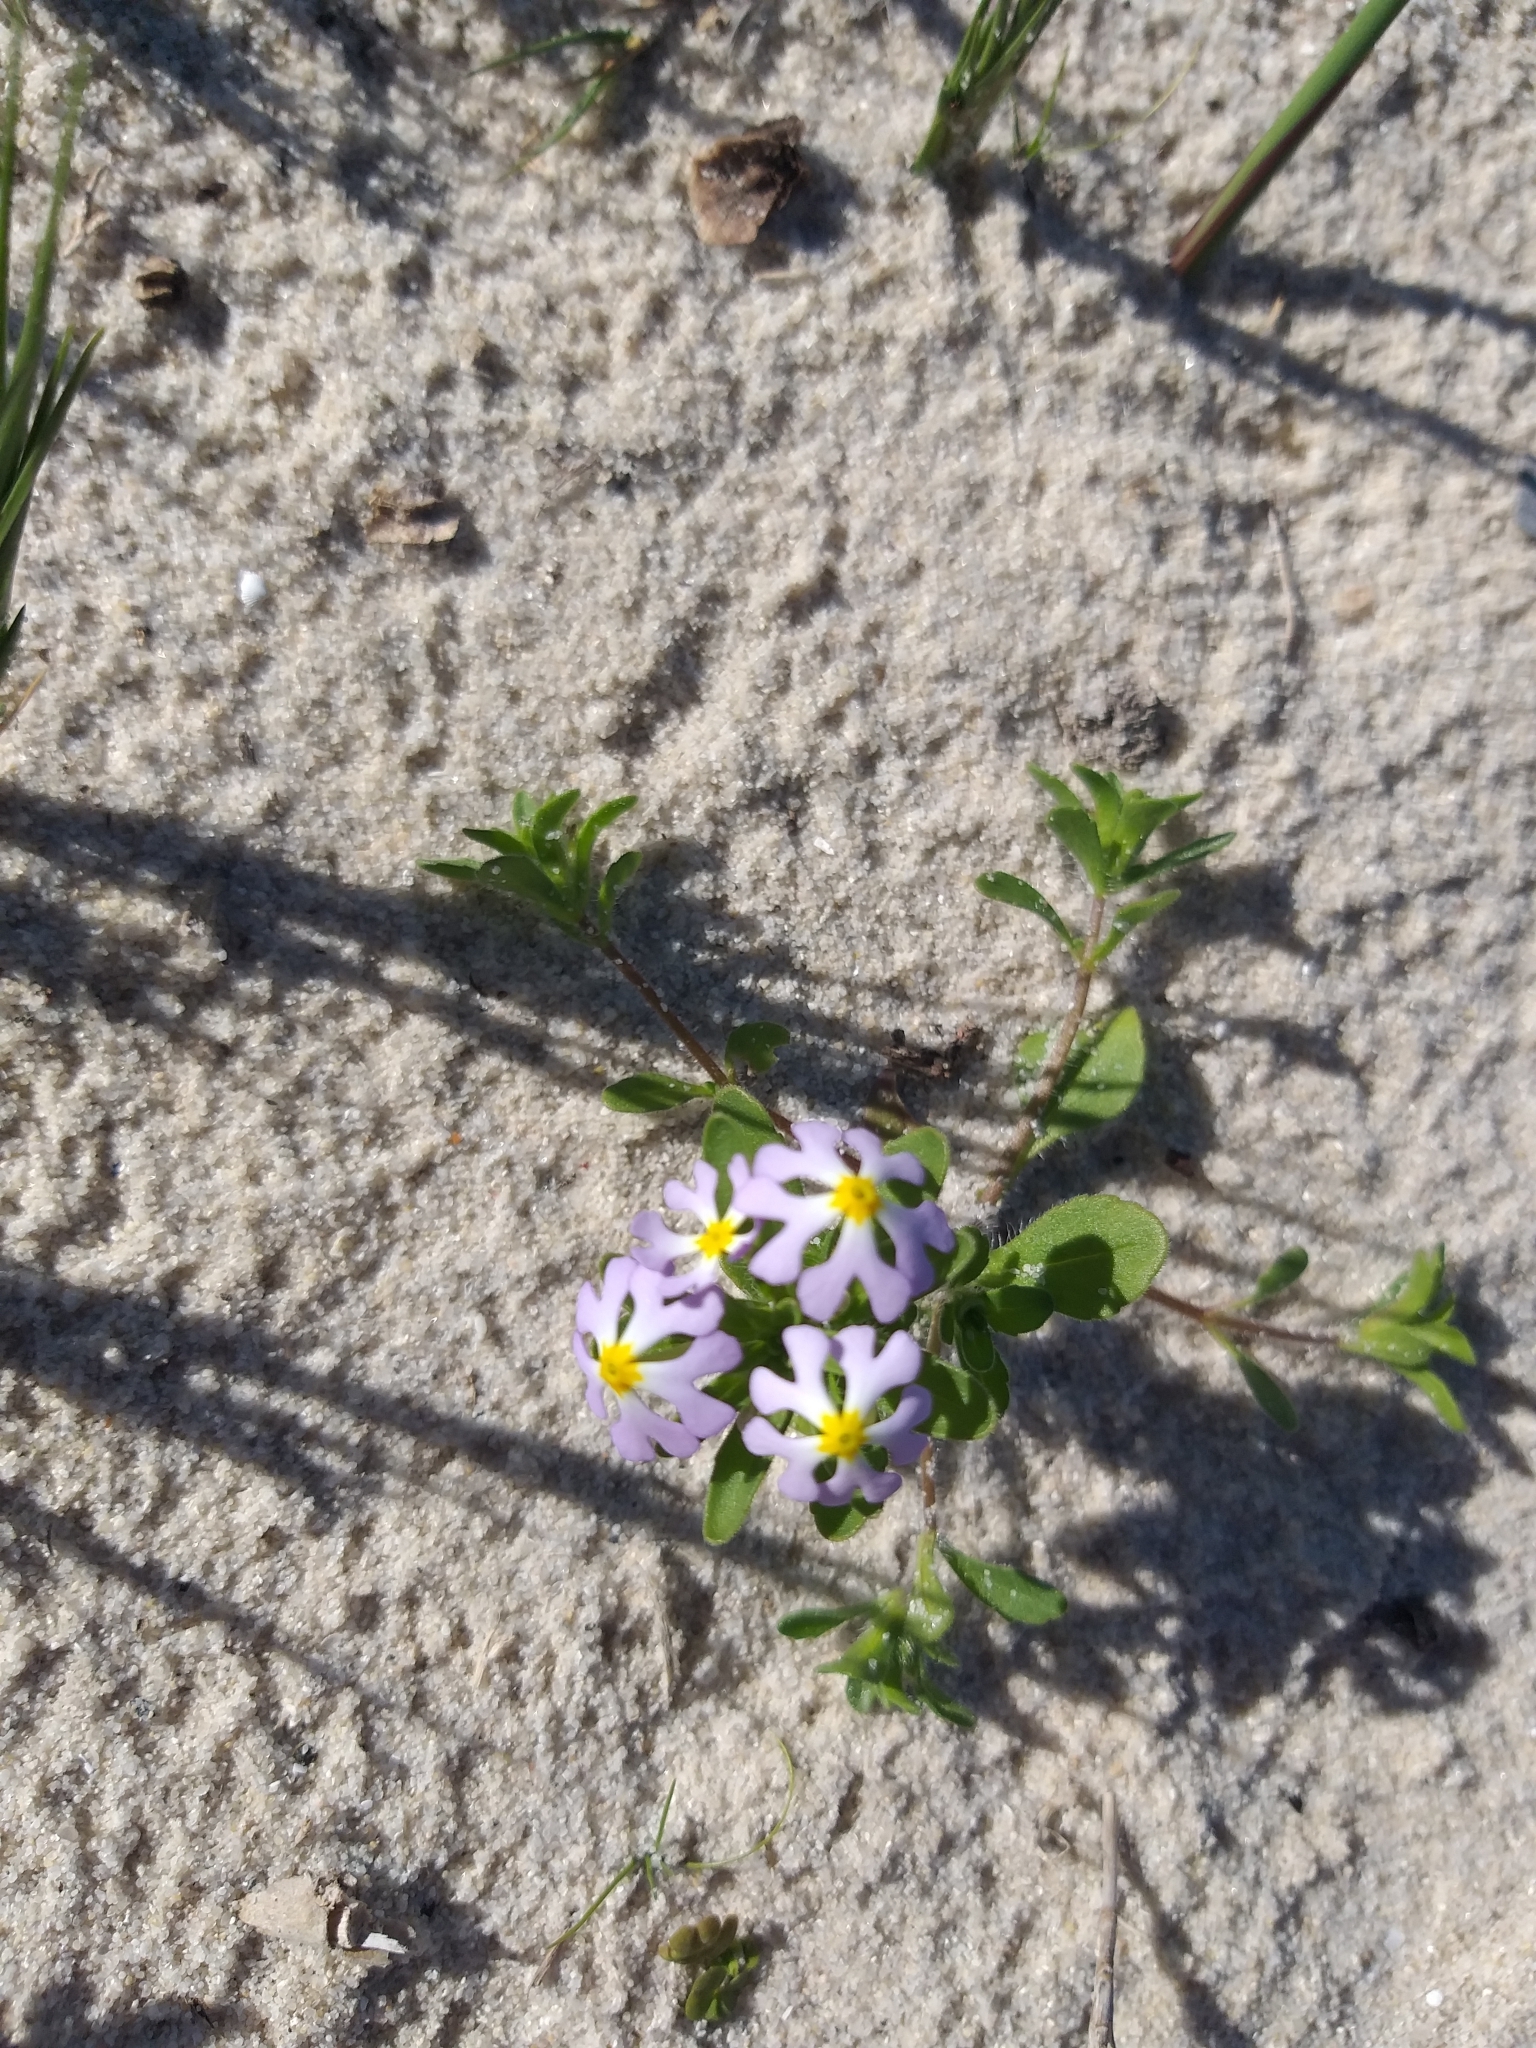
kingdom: Plantae
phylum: Tracheophyta
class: Magnoliopsida
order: Lamiales
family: Scrophulariaceae
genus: Zaluzianskya
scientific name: Zaluzianskya villosa
